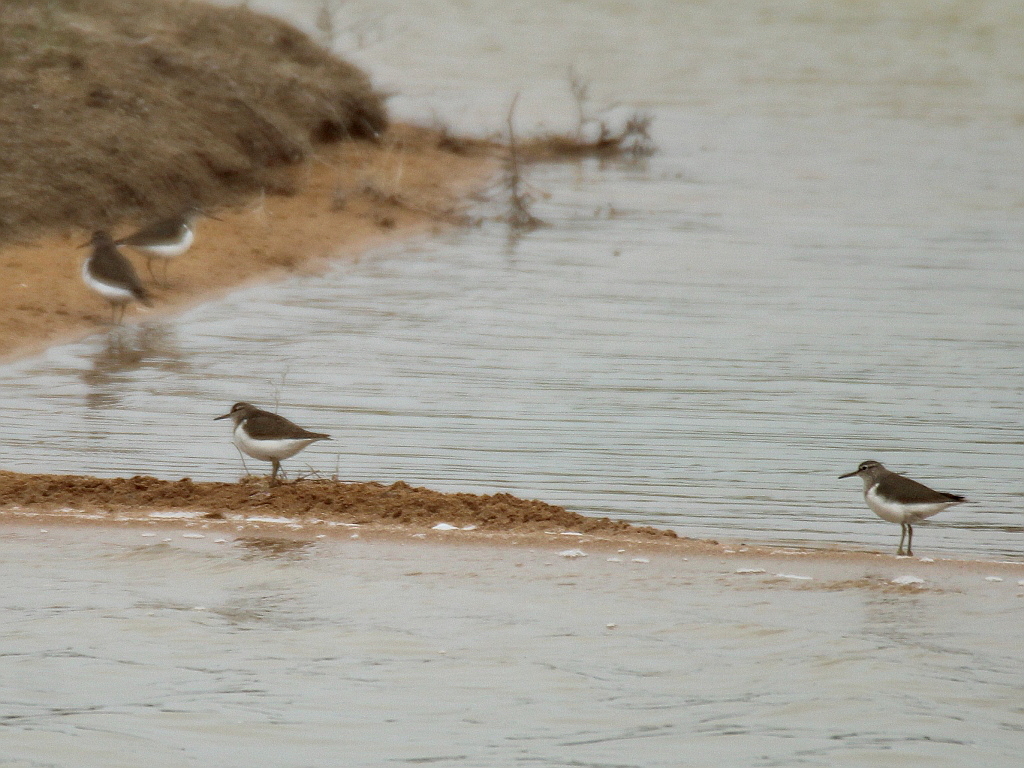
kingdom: Animalia
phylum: Chordata
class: Aves
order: Charadriiformes
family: Scolopacidae
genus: Actitis
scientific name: Actitis hypoleucos
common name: Common sandpiper
